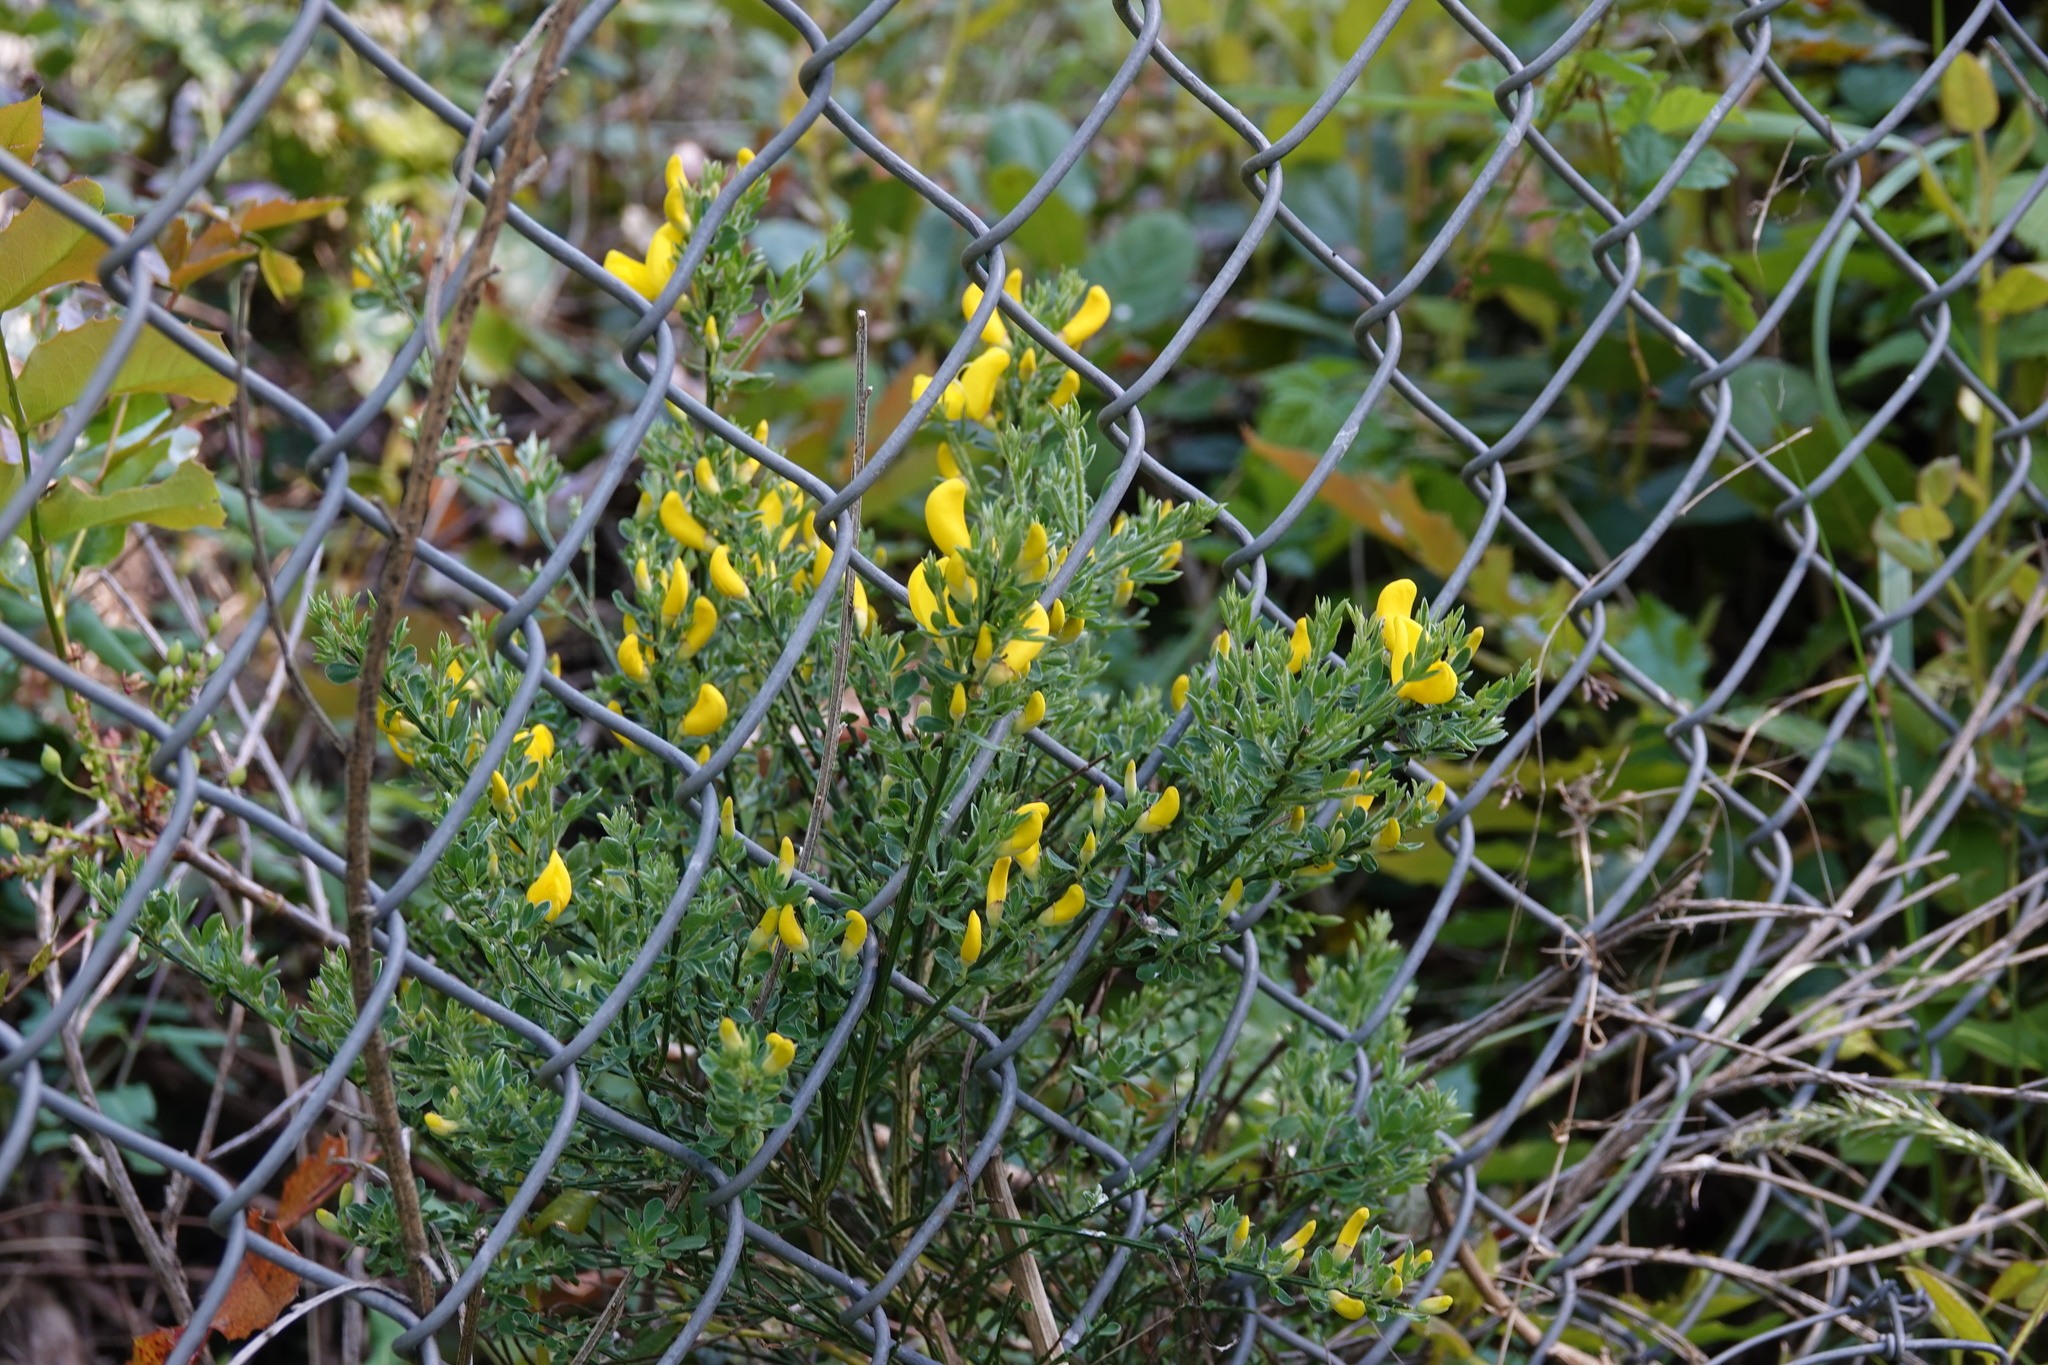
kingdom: Plantae
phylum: Tracheophyta
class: Magnoliopsida
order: Fabales
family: Fabaceae
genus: Cytisus
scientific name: Cytisus scoparius
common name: Scotch broom
